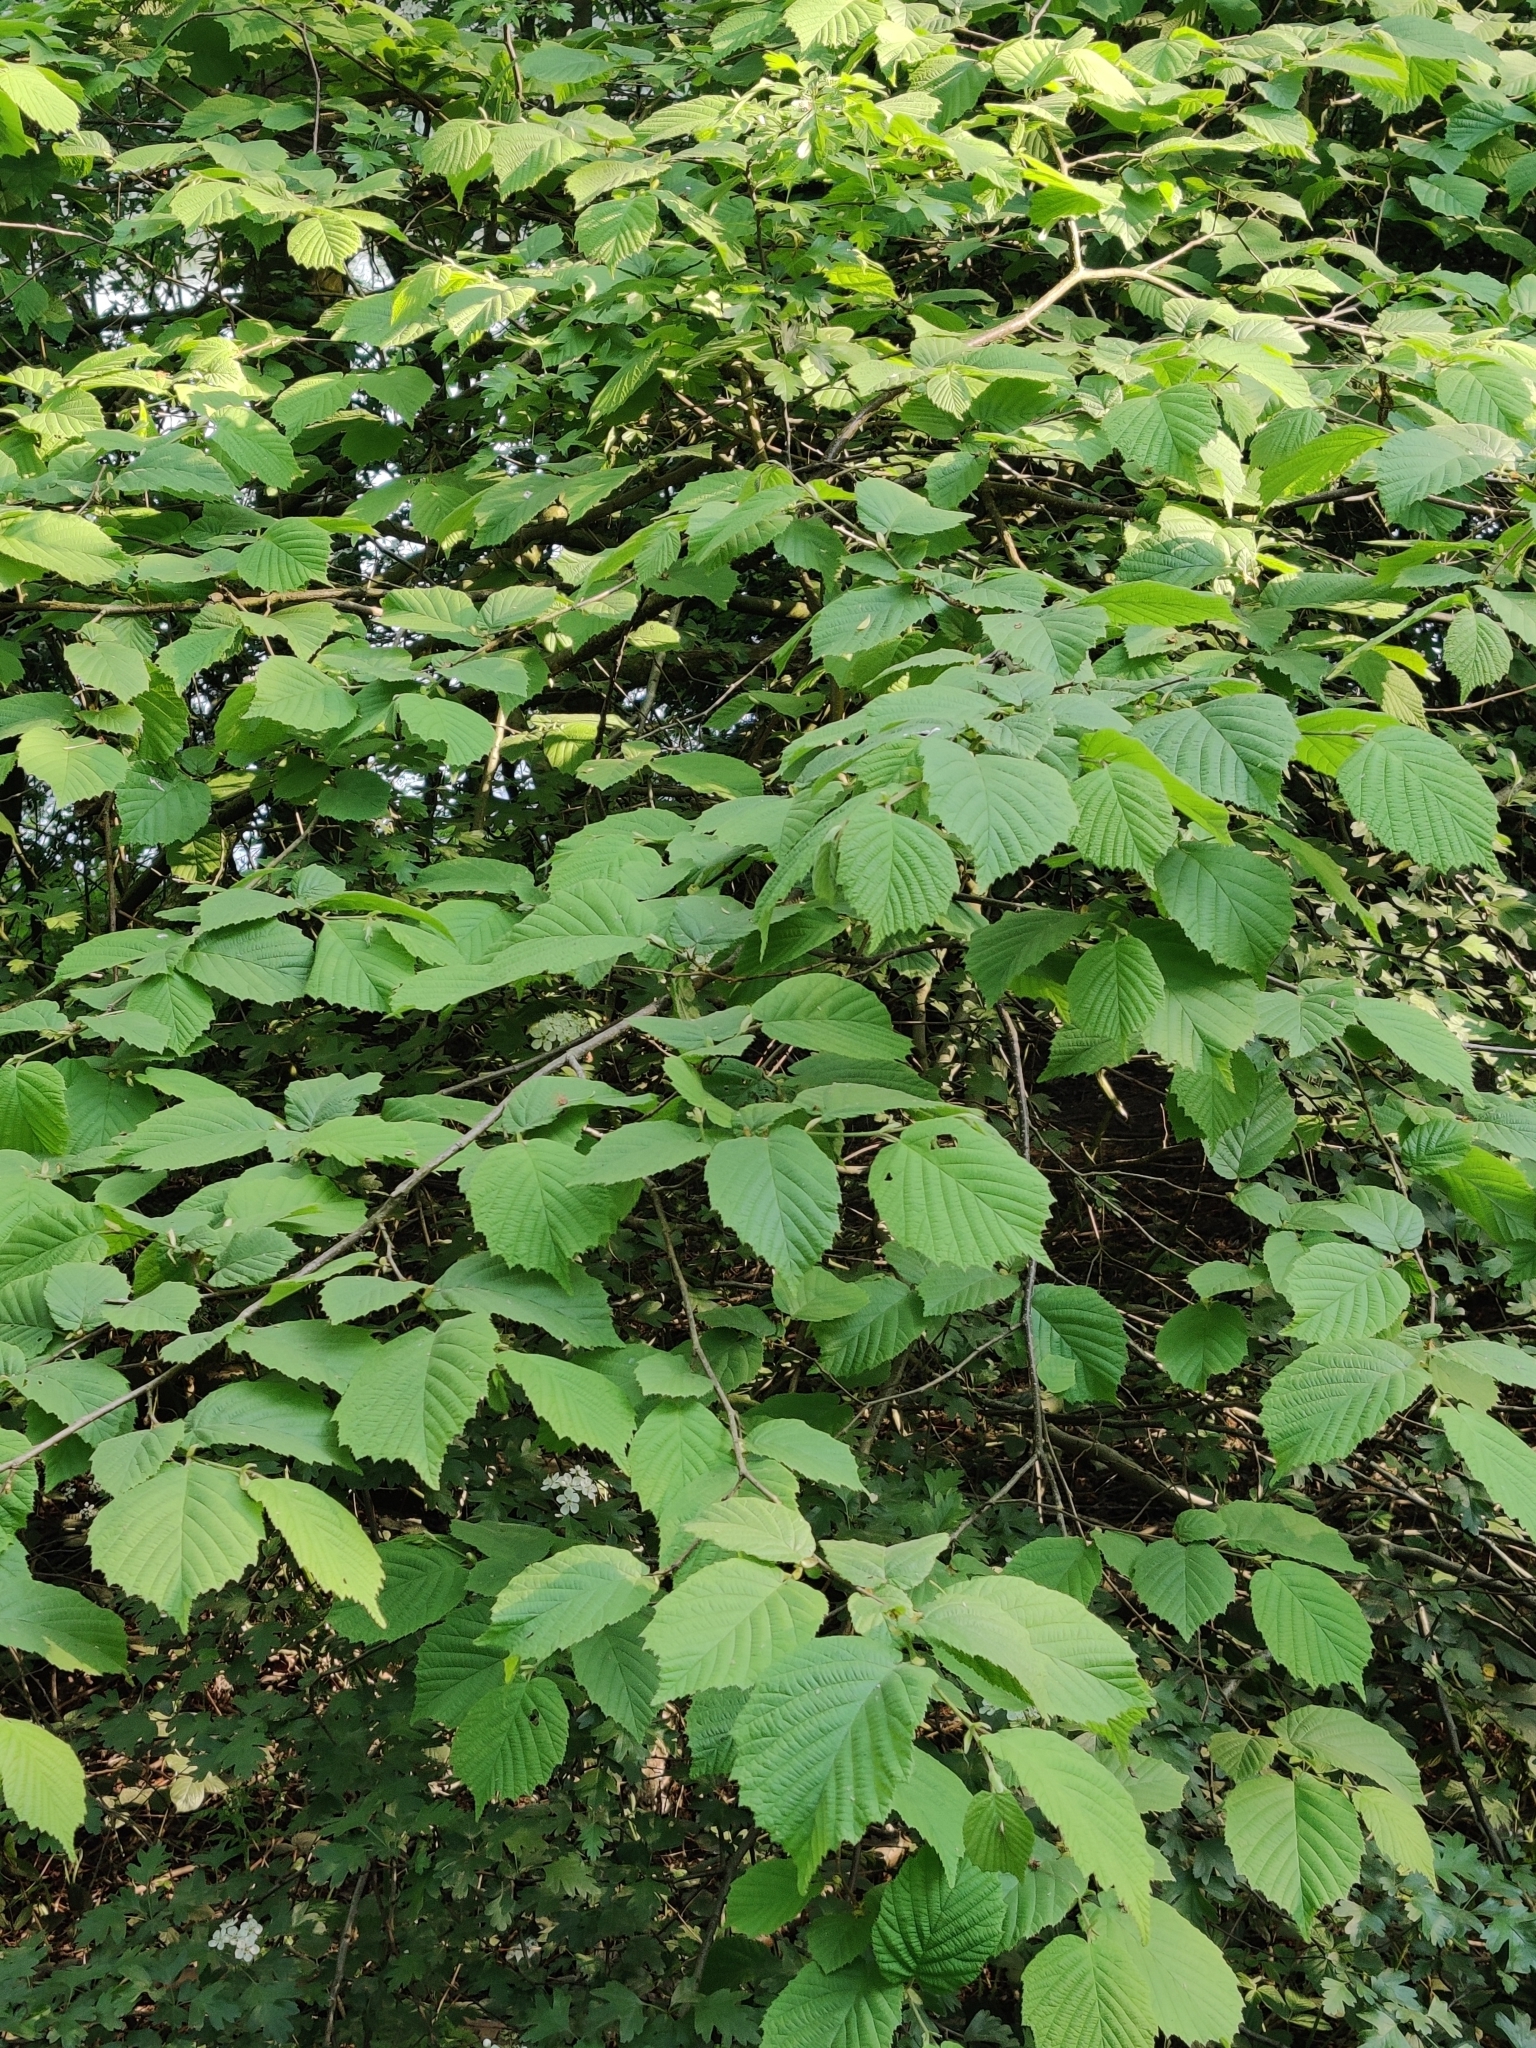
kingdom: Plantae
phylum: Tracheophyta
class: Magnoliopsida
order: Fagales
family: Betulaceae
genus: Corylus
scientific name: Corylus avellana
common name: European hazel
